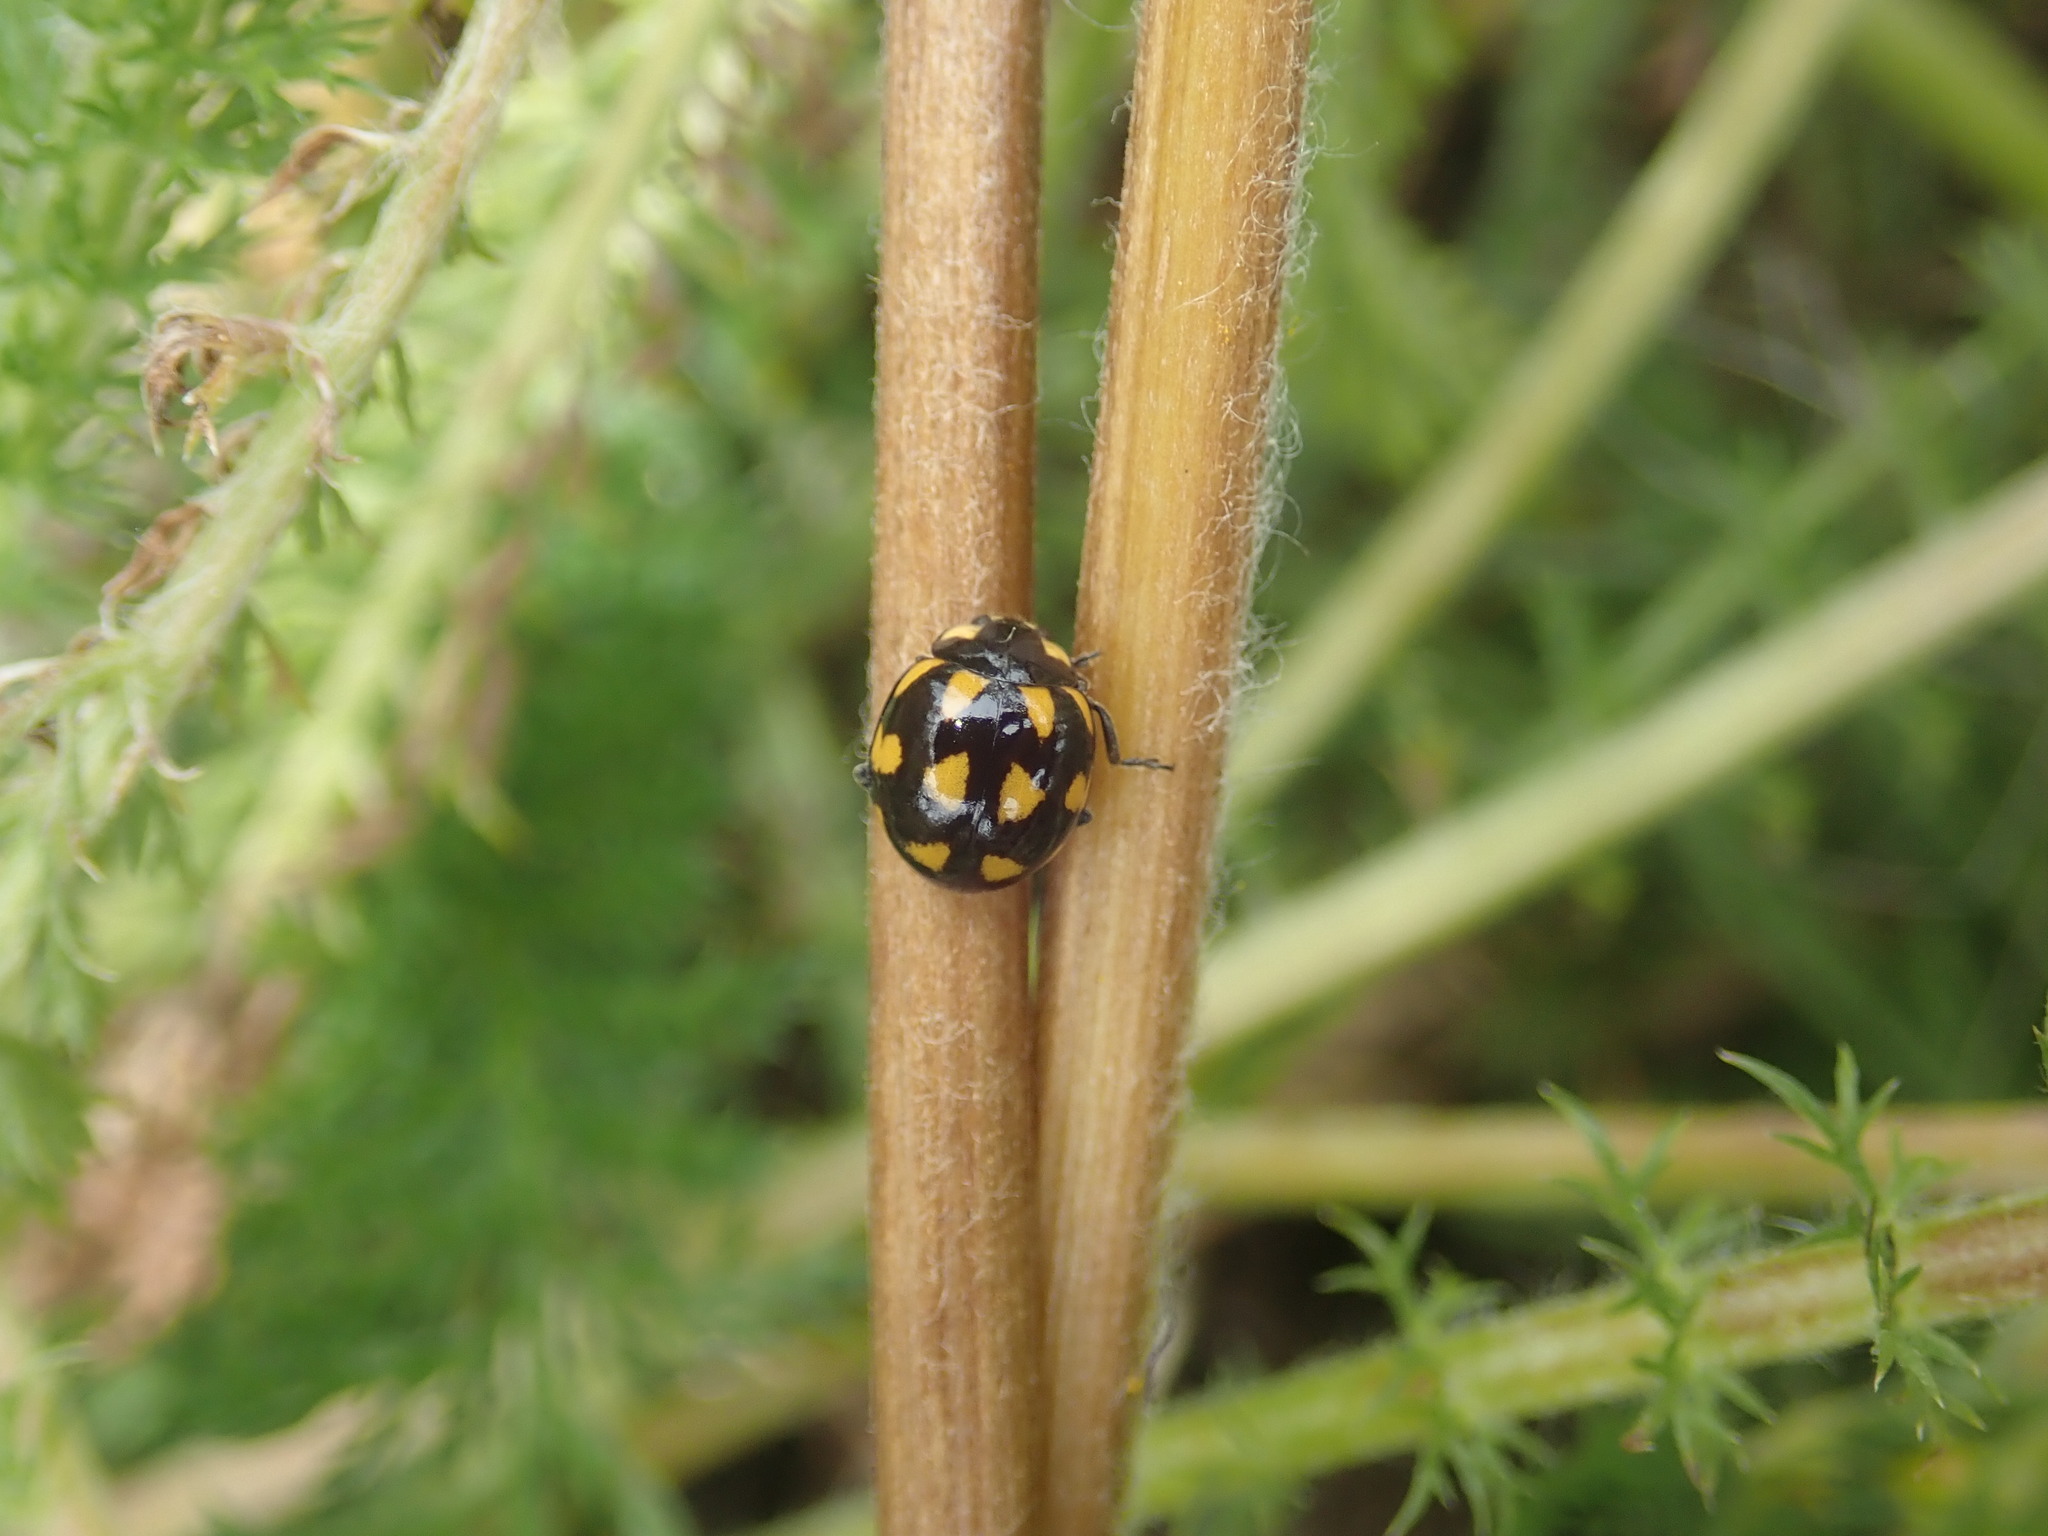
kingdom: Animalia
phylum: Arthropoda
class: Insecta
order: Coleoptera
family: Coccinellidae
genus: Coccinella
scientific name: Coccinella leonina
